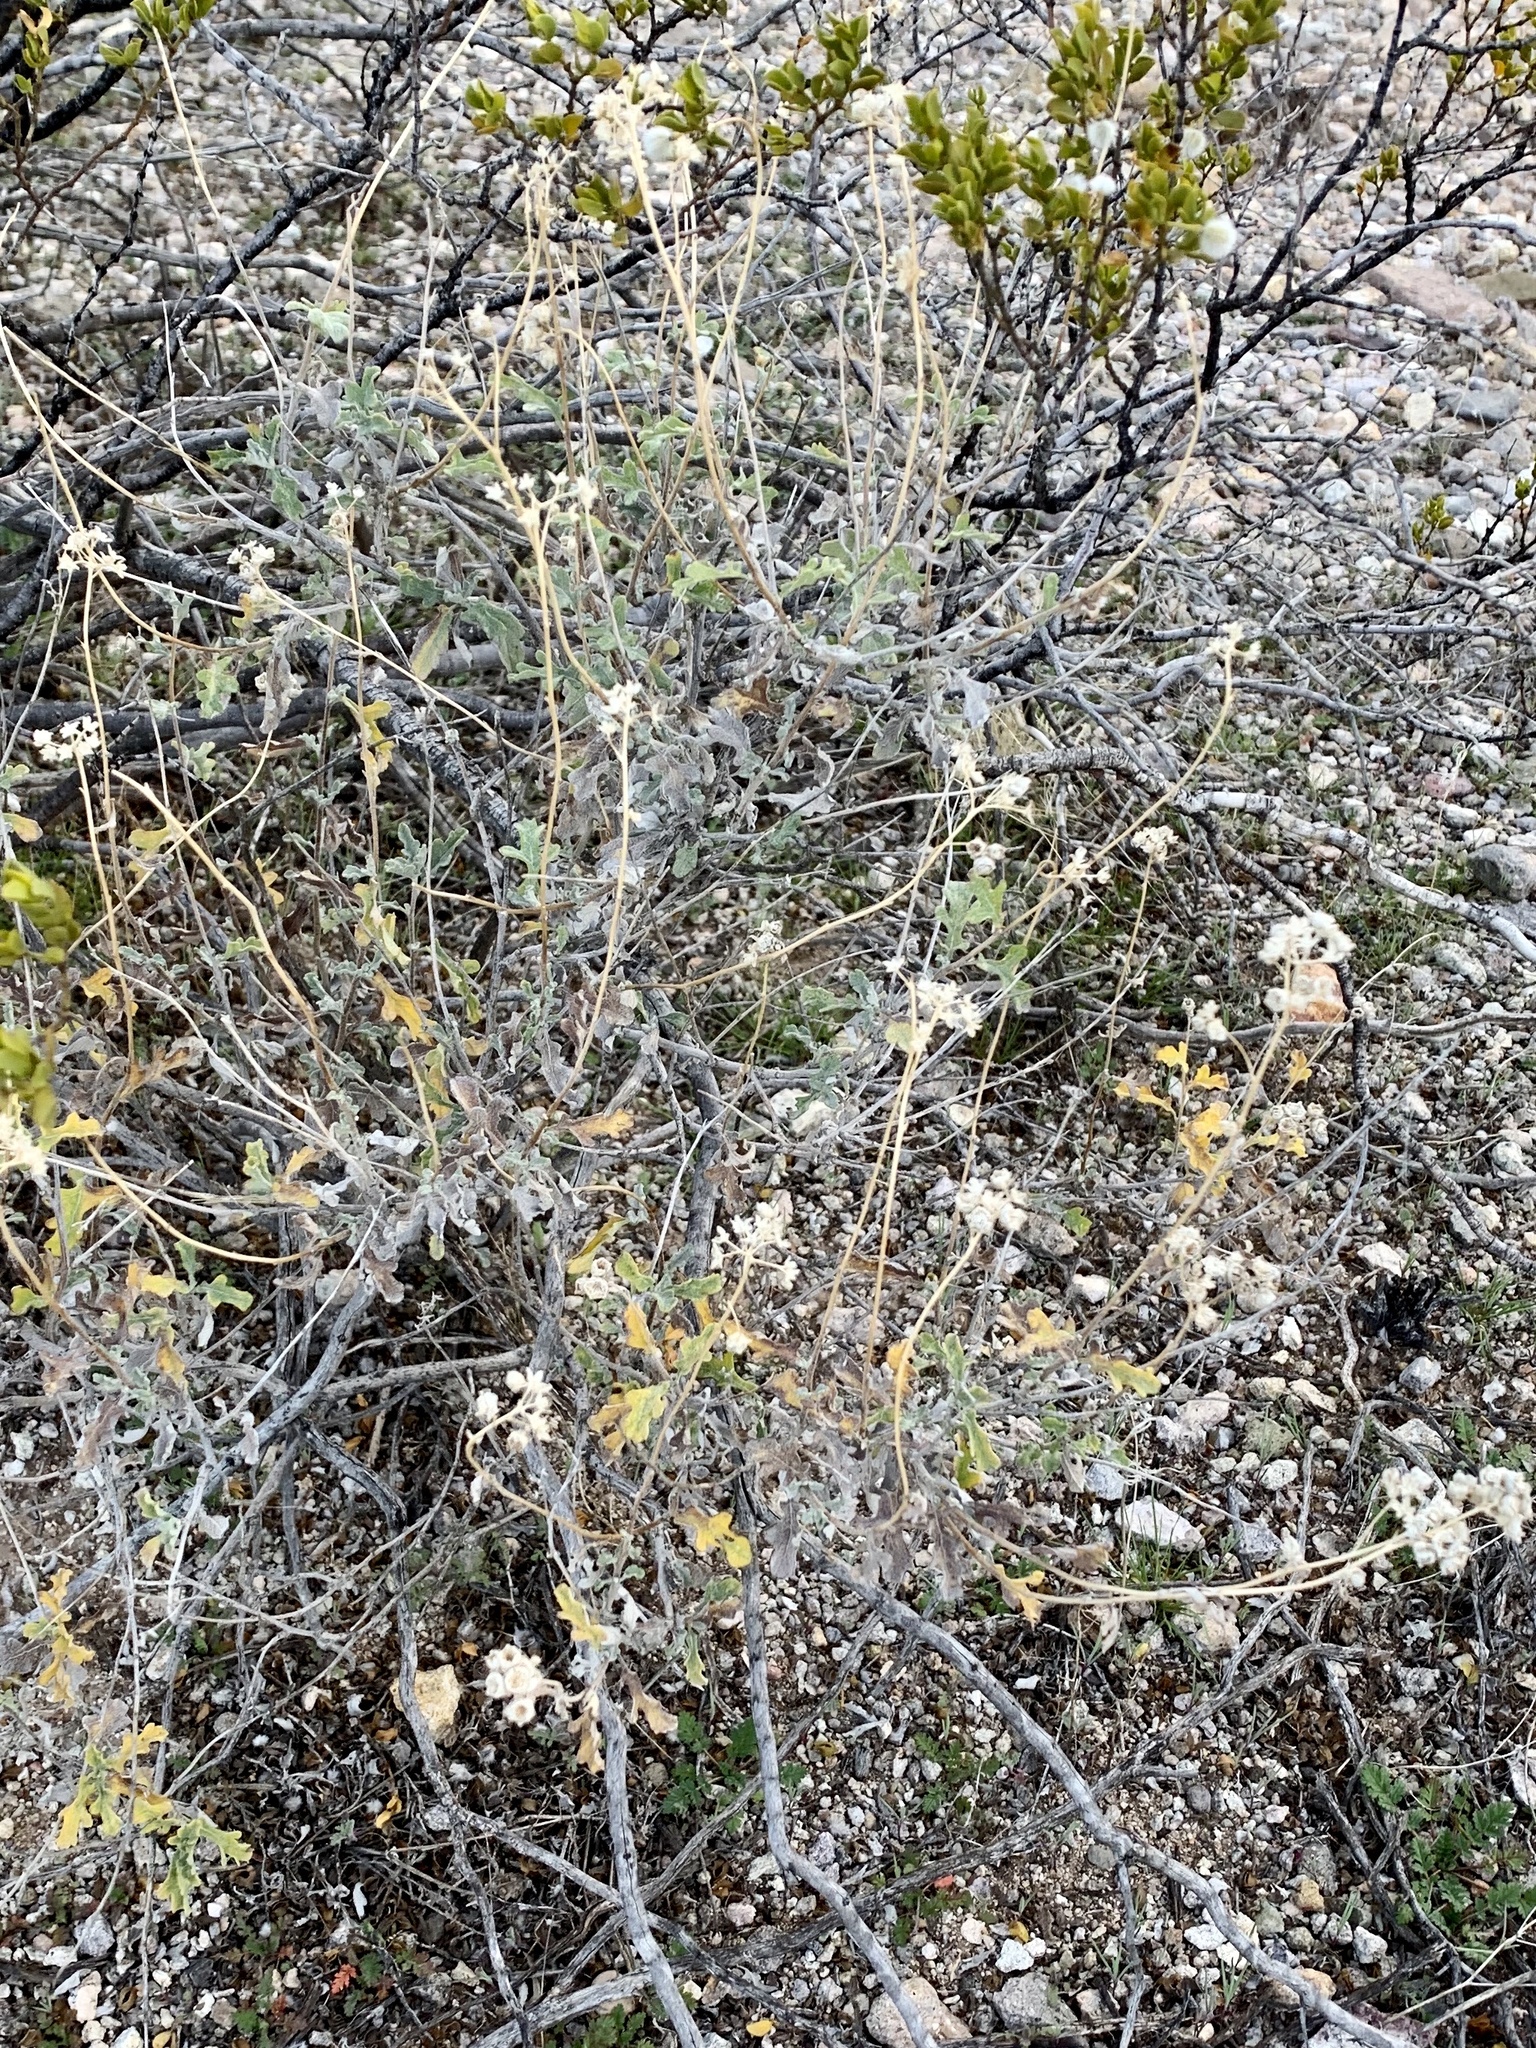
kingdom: Plantae
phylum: Tracheophyta
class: Magnoliopsida
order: Asterales
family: Asteraceae
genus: Parthenium
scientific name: Parthenium incanum
